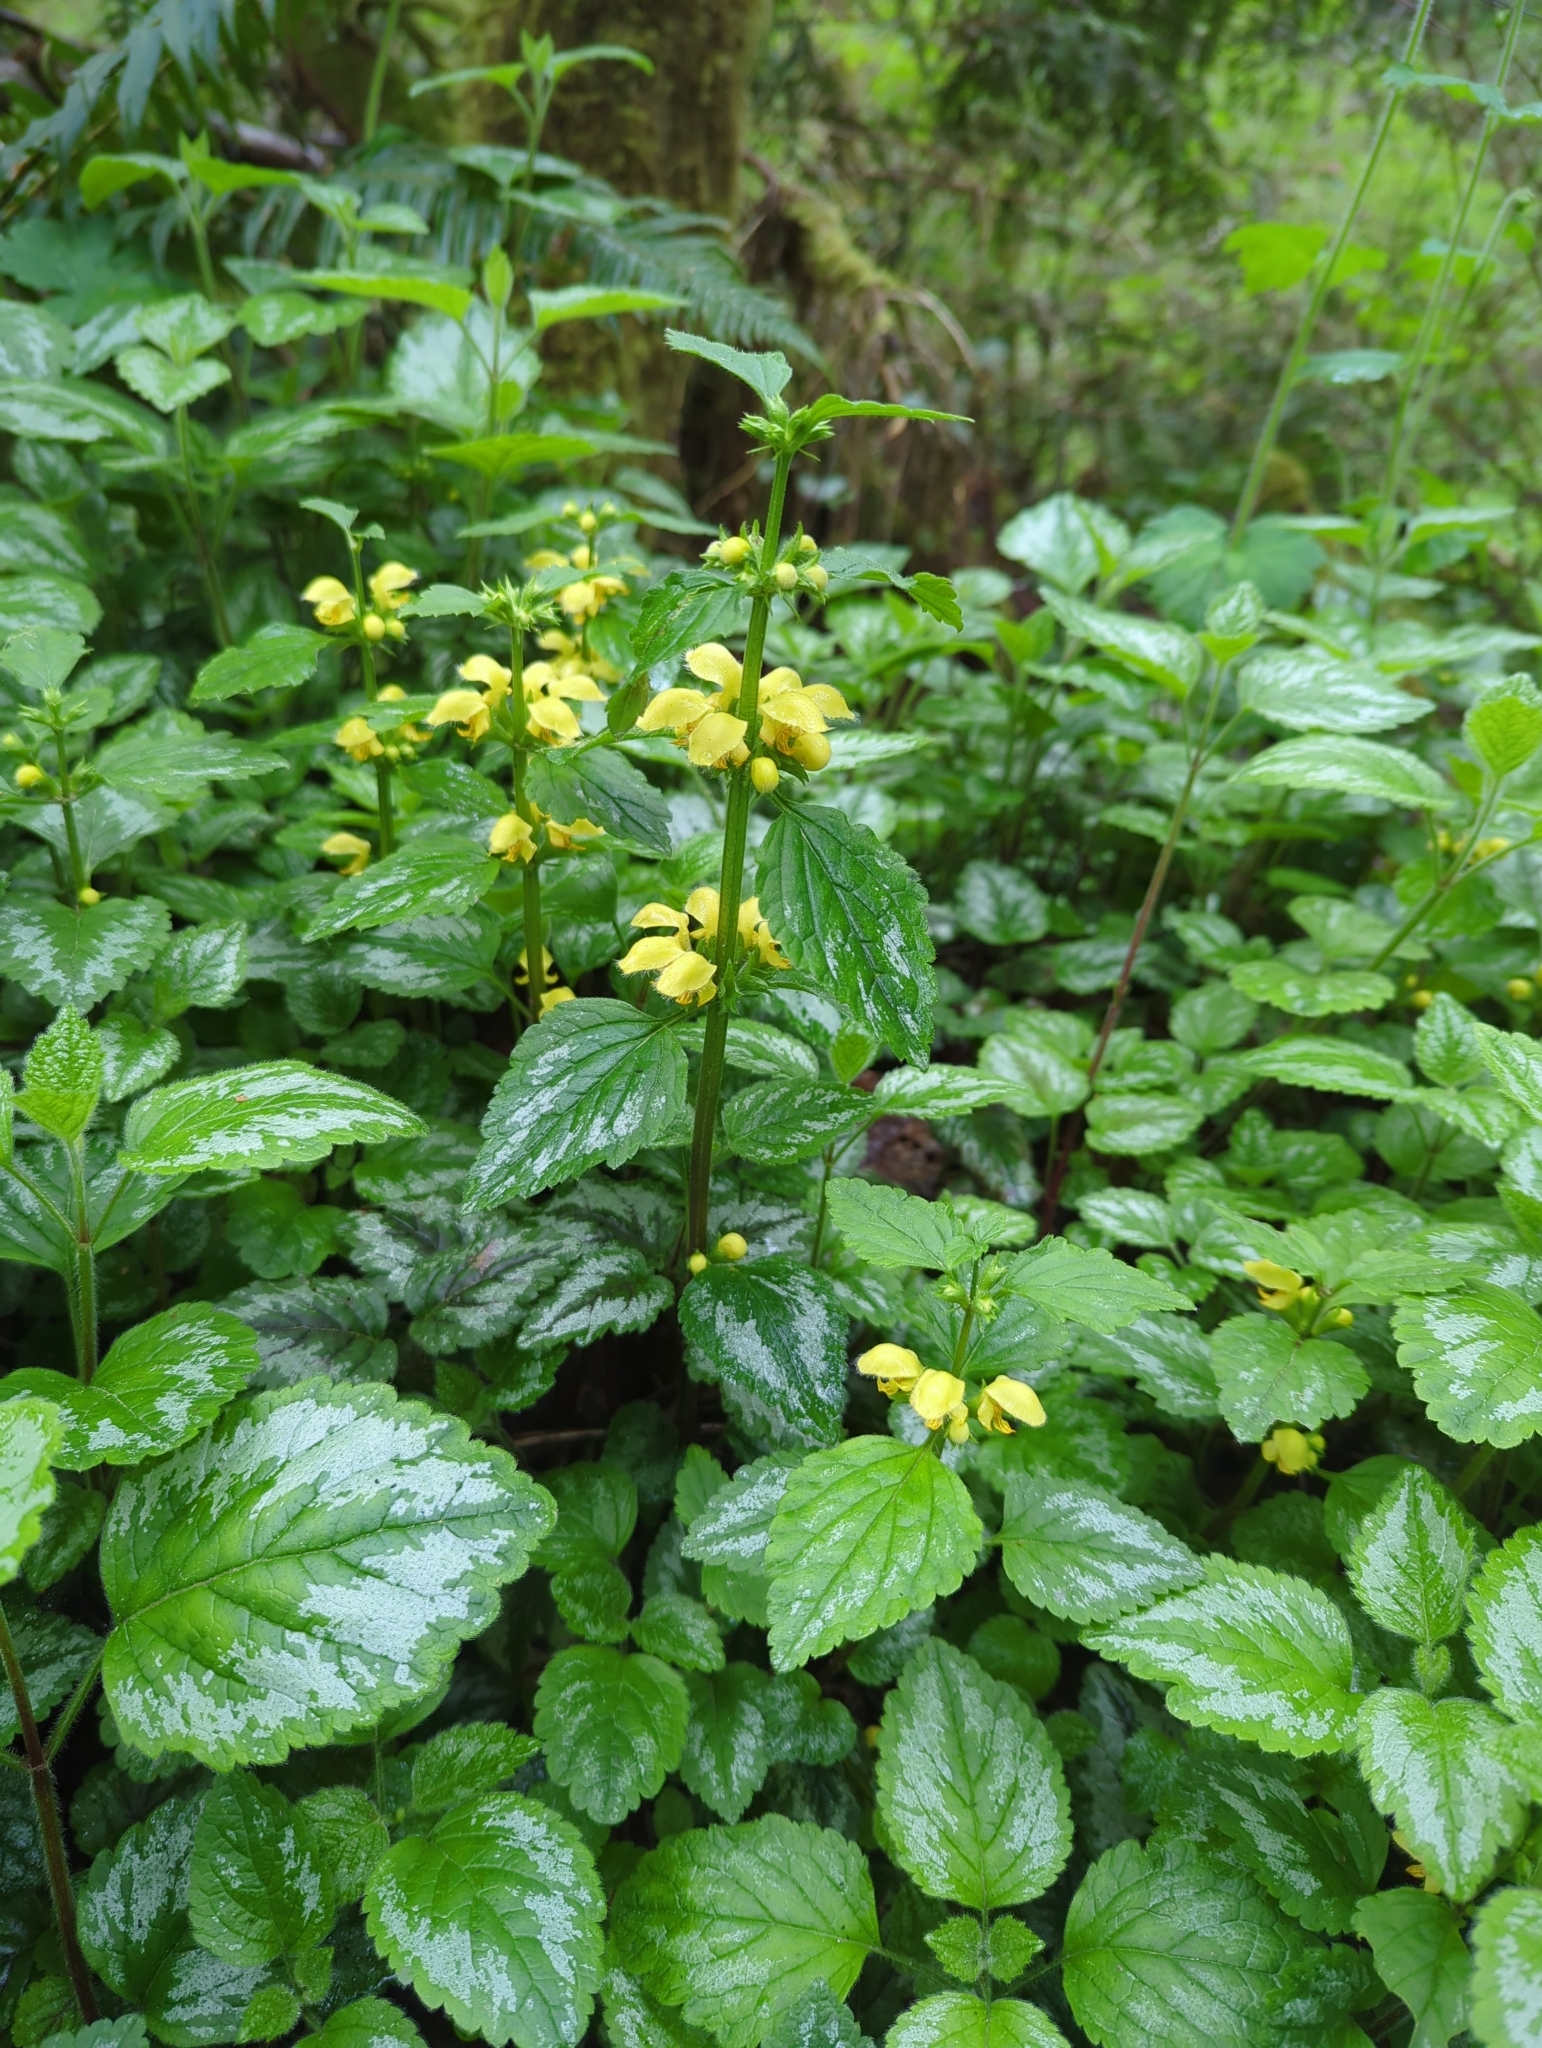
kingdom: Plantae
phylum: Tracheophyta
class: Magnoliopsida
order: Lamiales
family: Lamiaceae
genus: Lamium
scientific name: Lamium galeobdolon
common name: Yellow archangel
